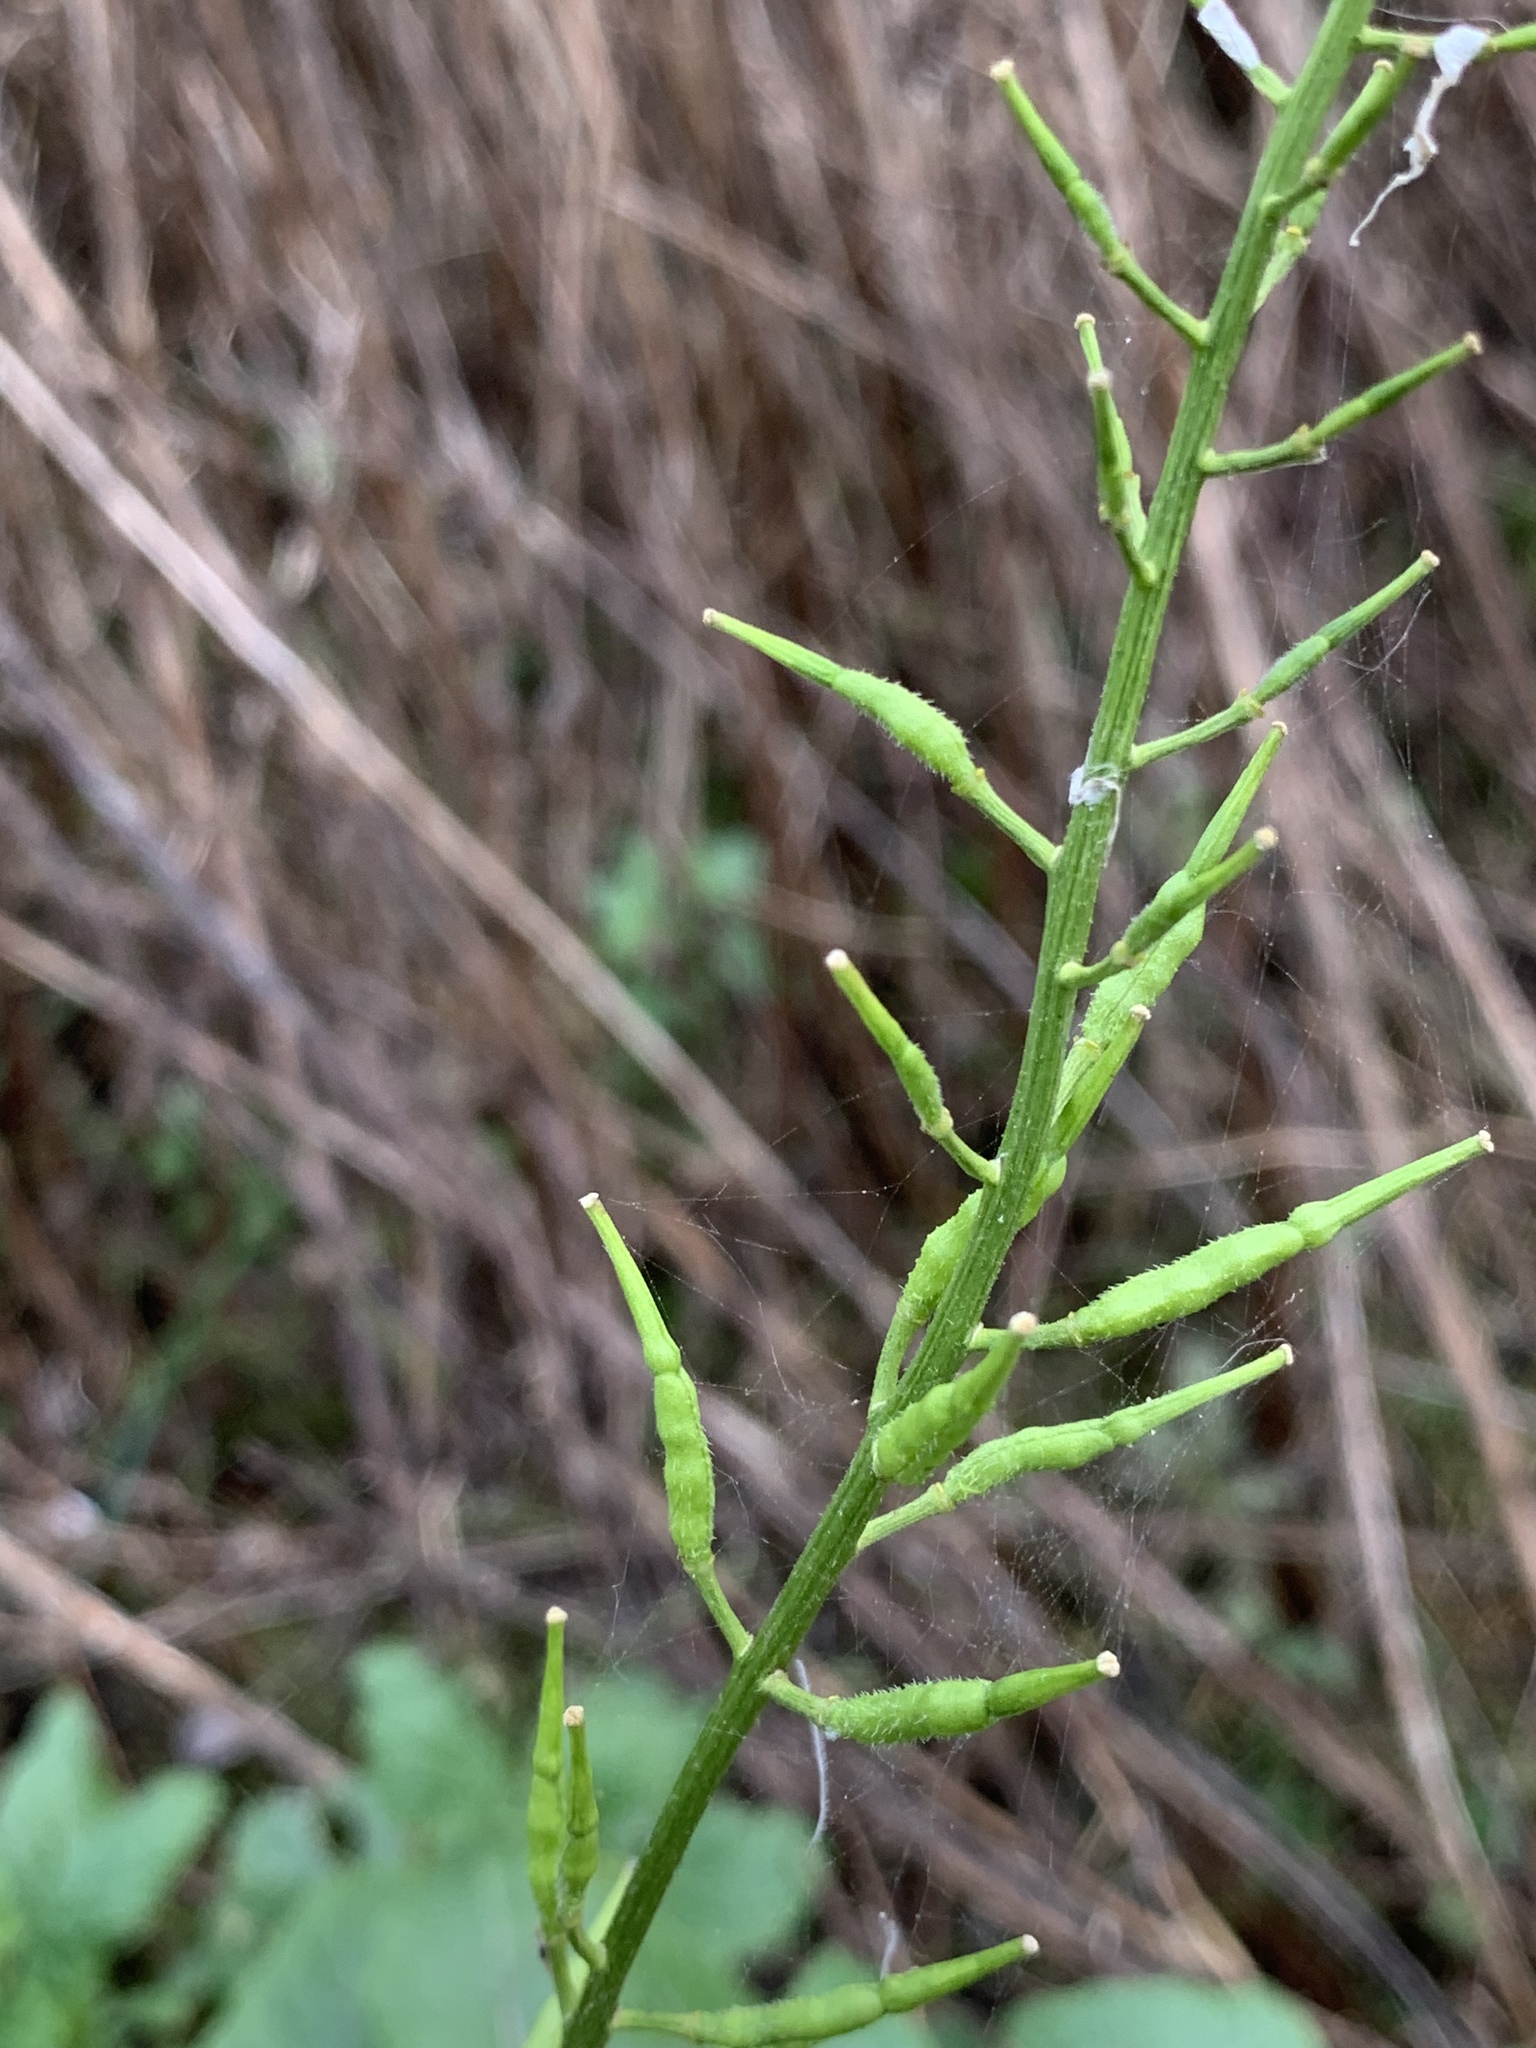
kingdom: Plantae
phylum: Tracheophyta
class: Magnoliopsida
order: Brassicales
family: Brassicaceae
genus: Sinapis
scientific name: Sinapis arvensis
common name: Charlock
